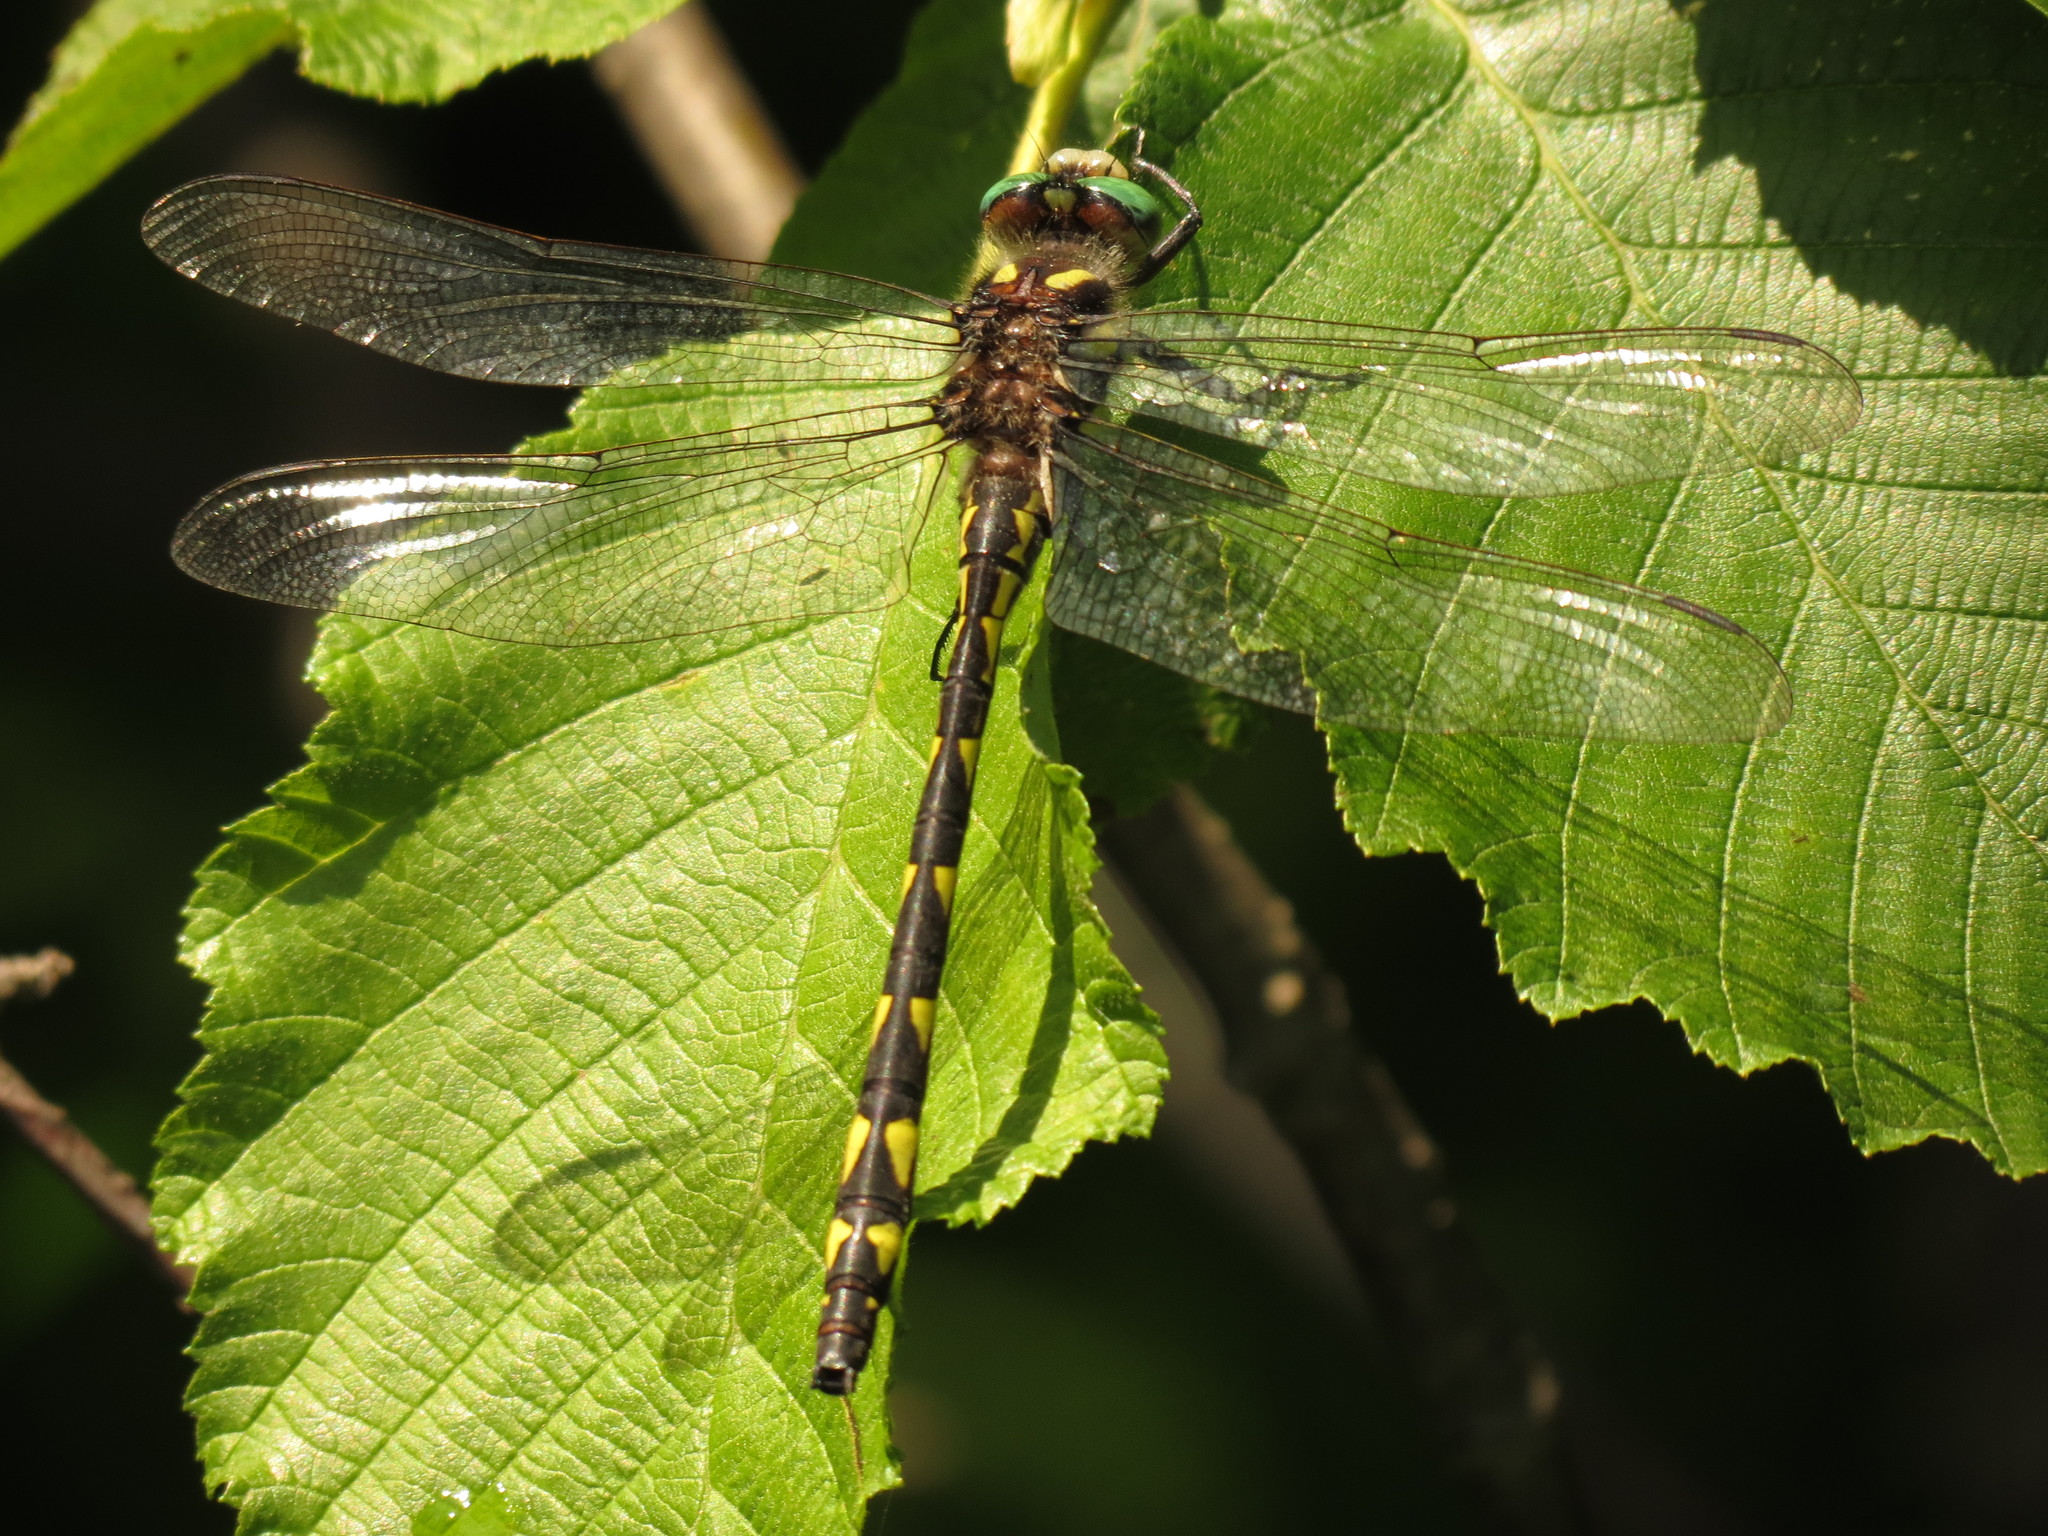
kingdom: Animalia
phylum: Arthropoda
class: Insecta
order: Odonata
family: Cordulegastridae
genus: Cordulegaster
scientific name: Cordulegaster diastatops
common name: Delta-spotted spiketail
